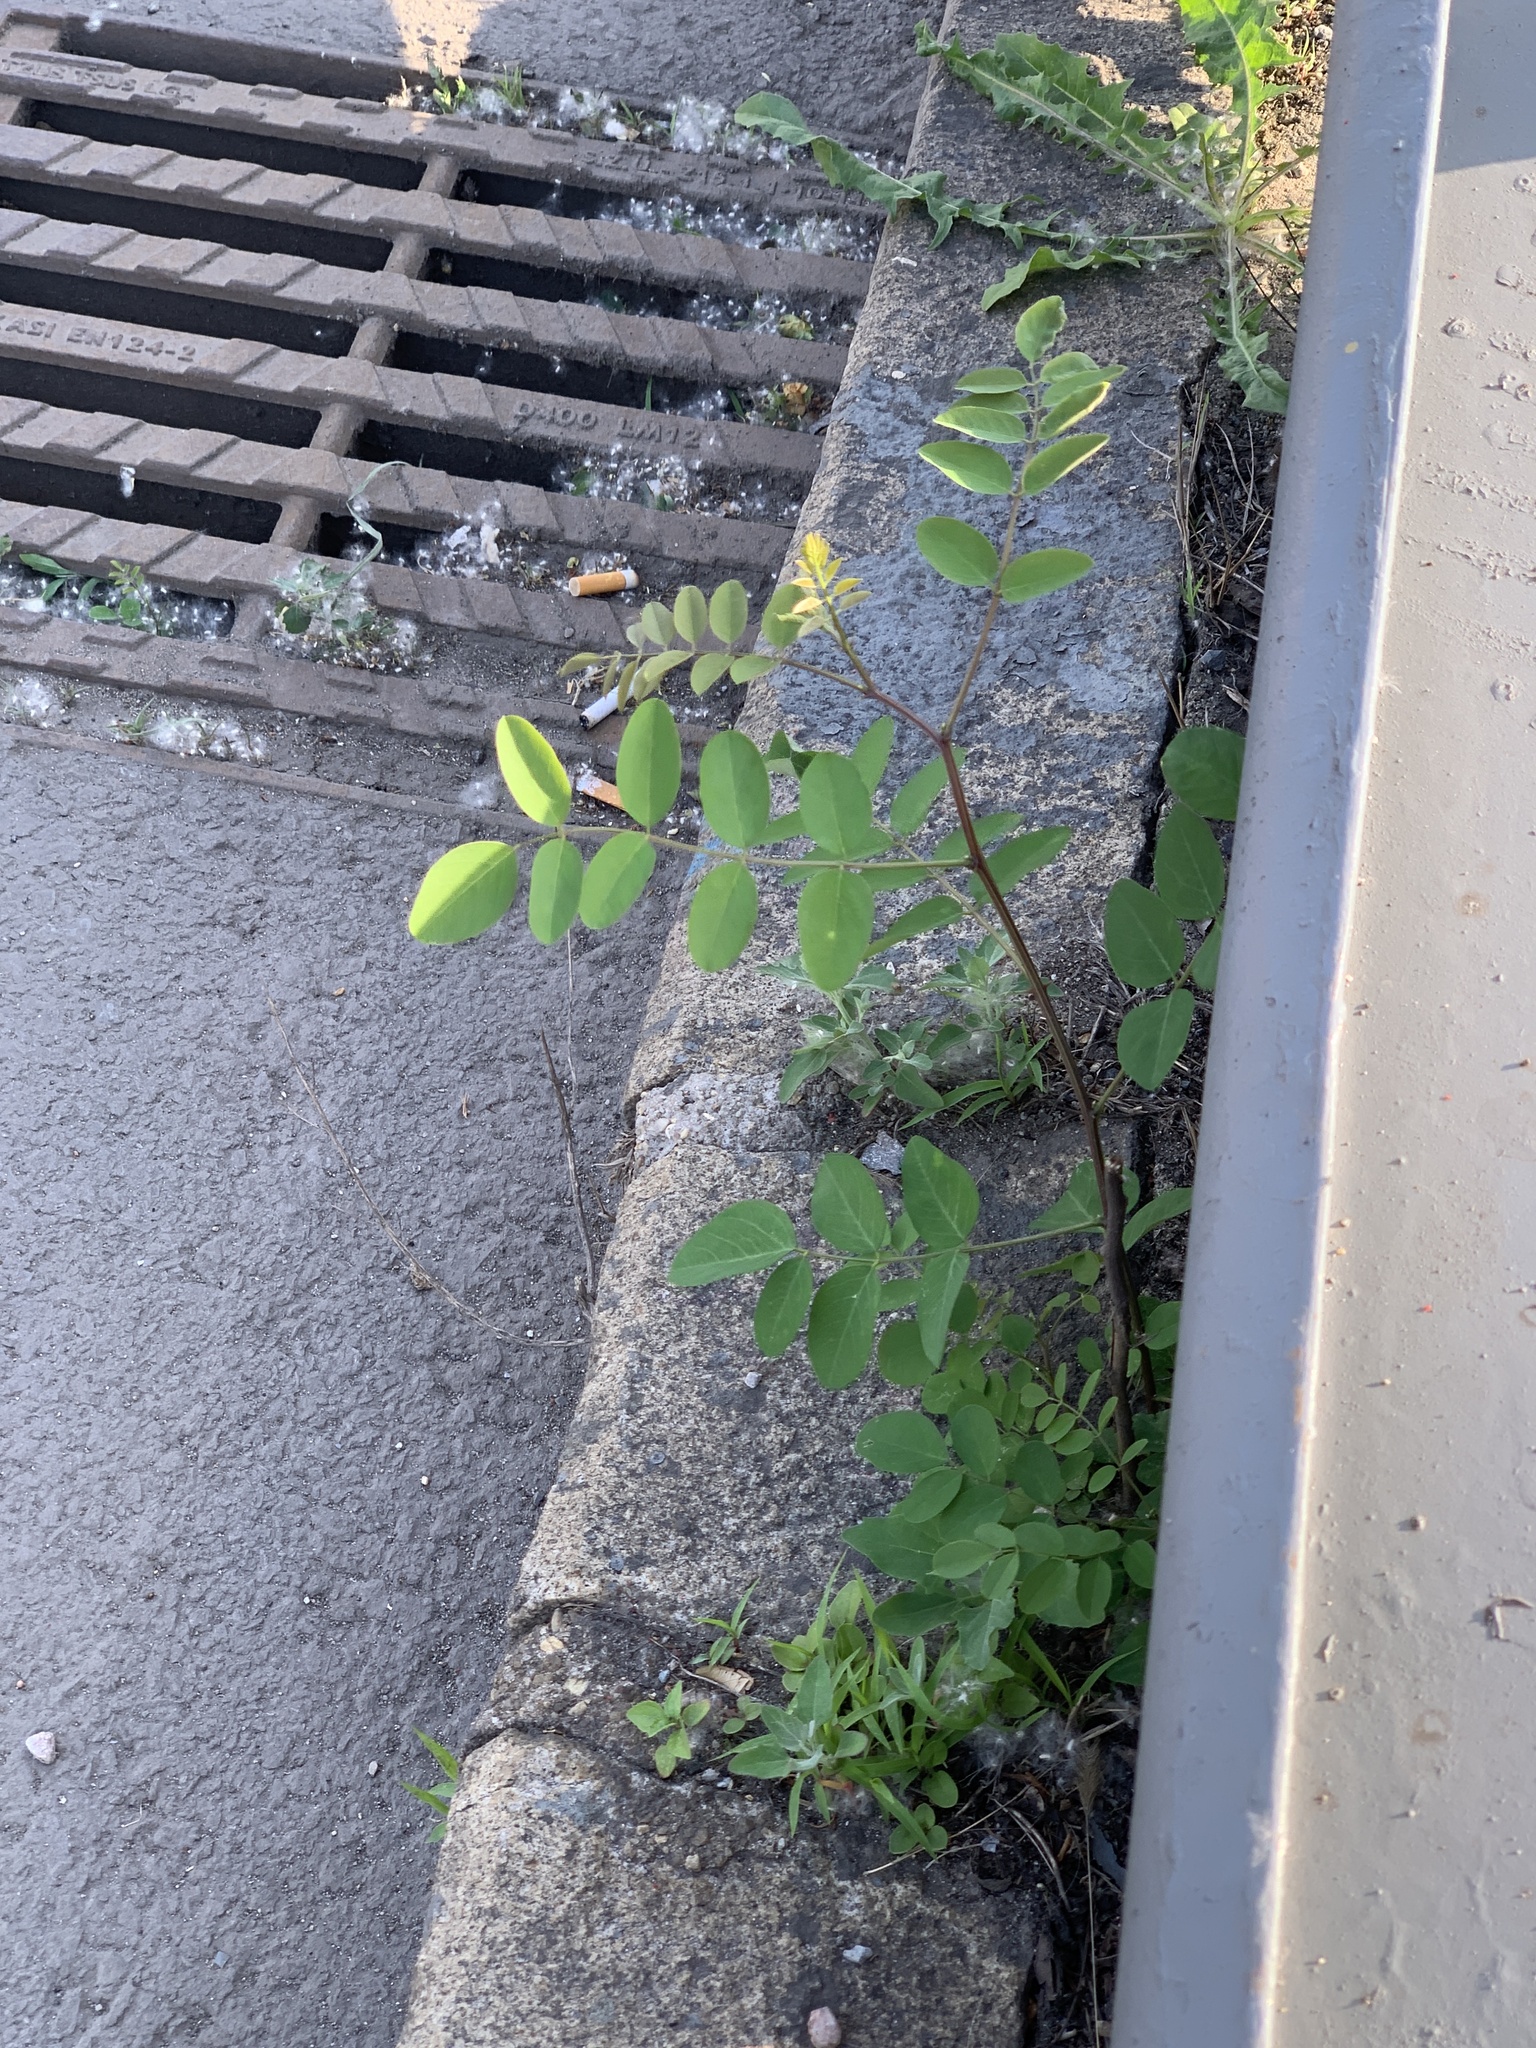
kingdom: Plantae
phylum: Tracheophyta
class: Magnoliopsida
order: Fabales
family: Fabaceae
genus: Robinia
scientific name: Robinia pseudoacacia
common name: Black locust
